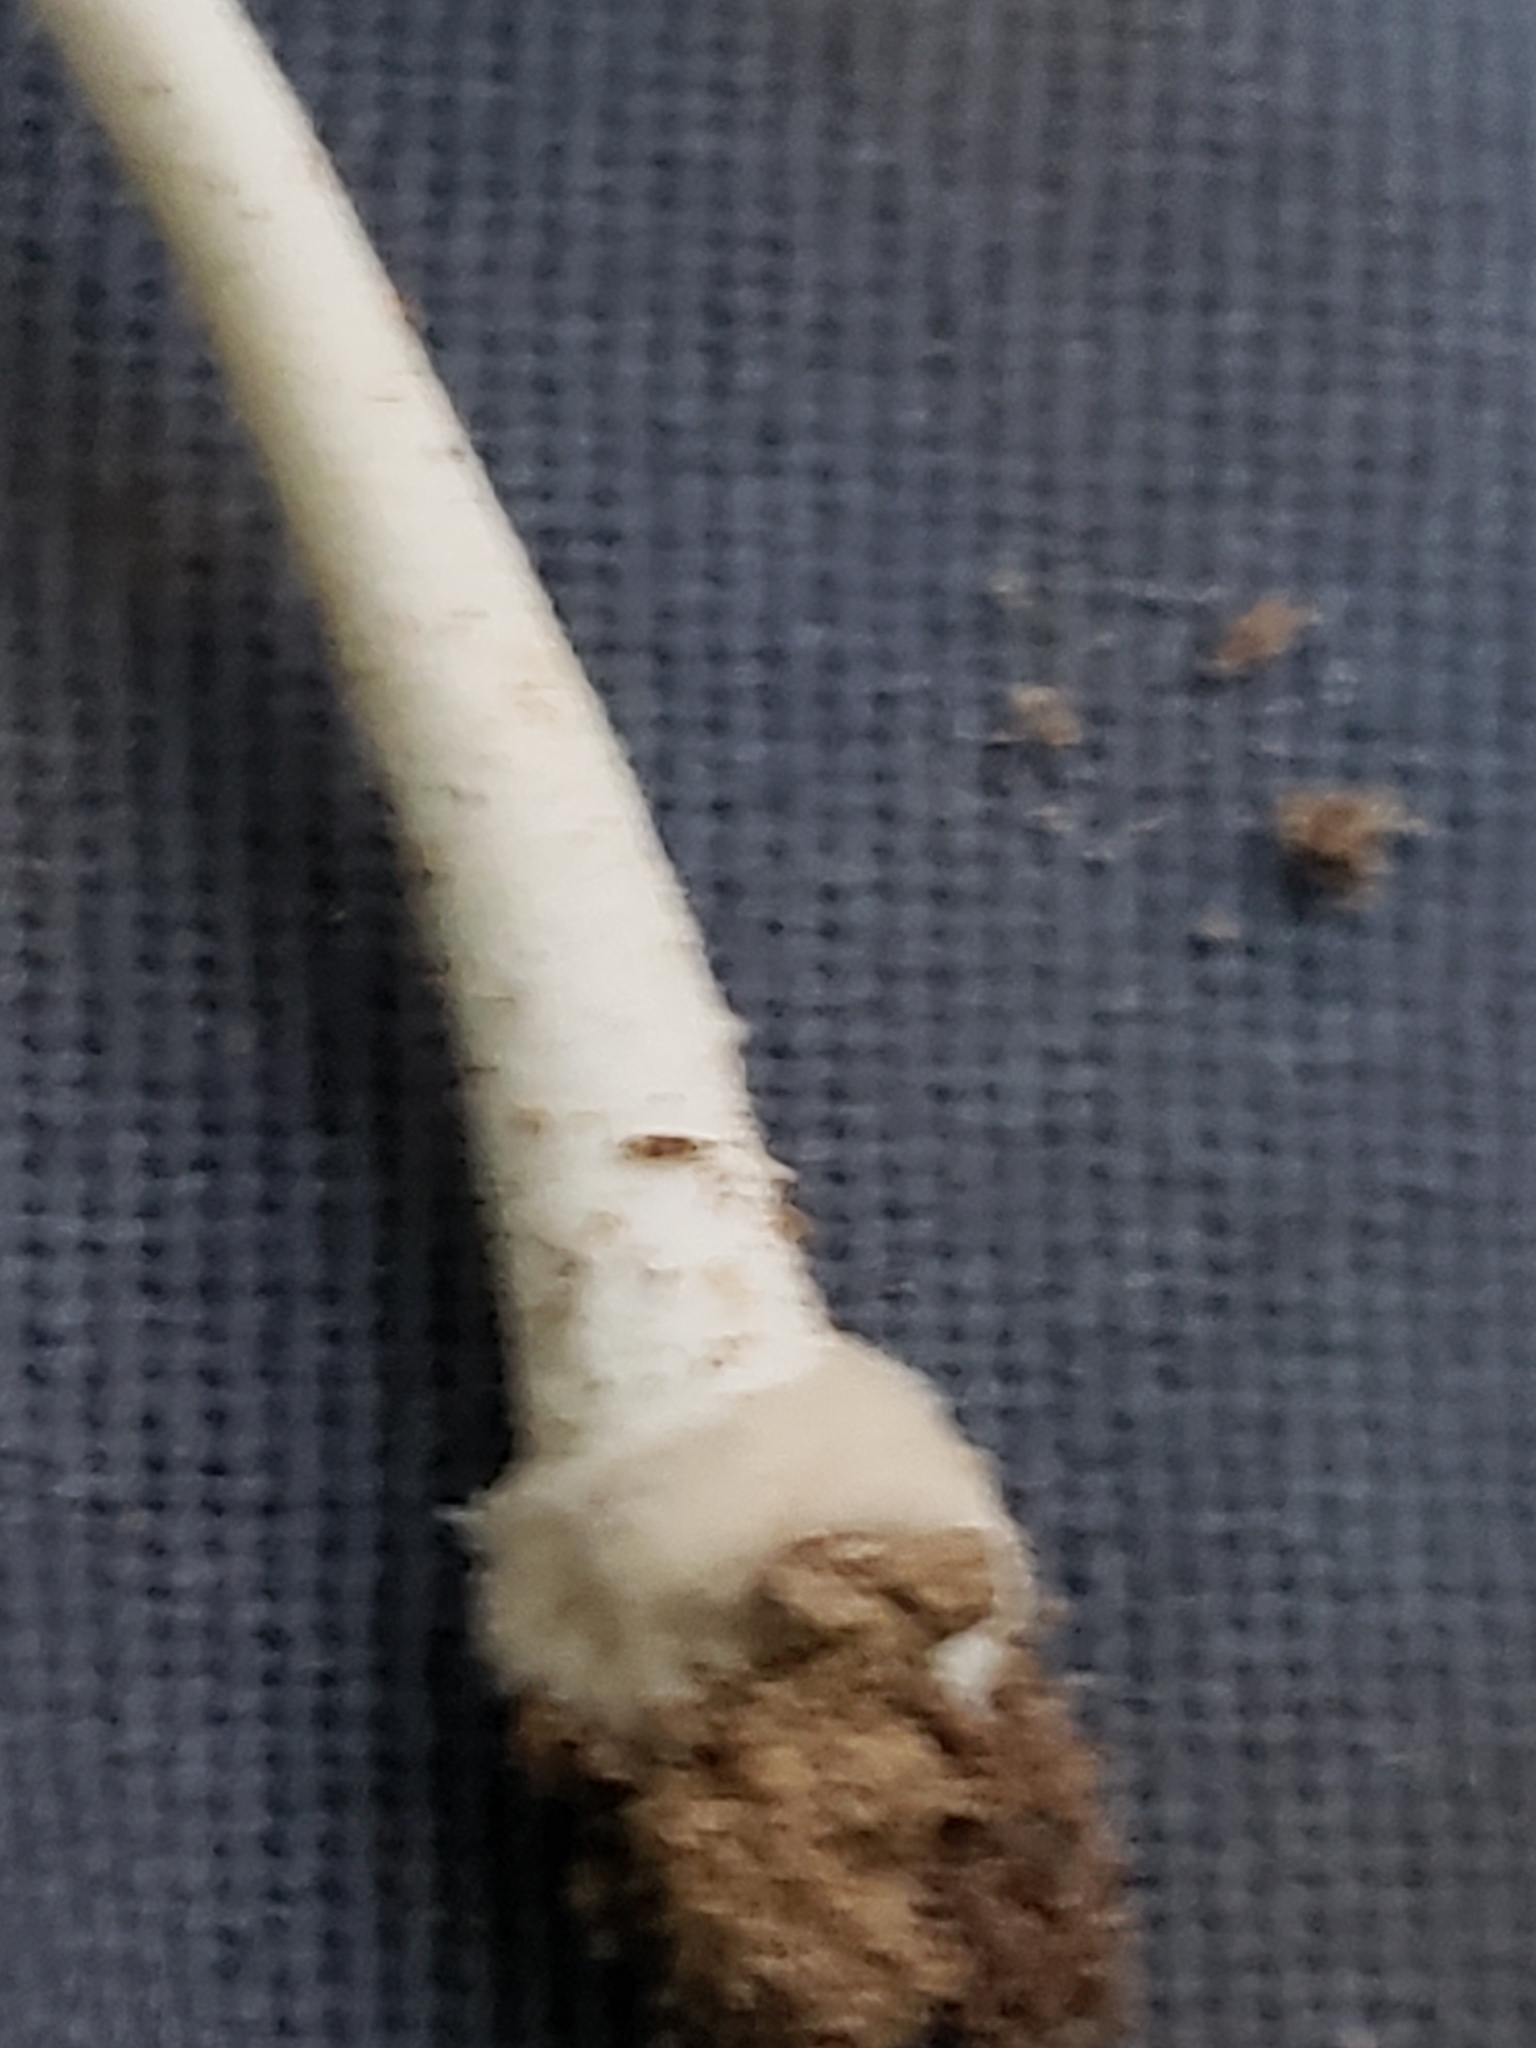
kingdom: Fungi
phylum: Basidiomycota
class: Agaricomycetes
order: Agaricales
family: Amanitaceae
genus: Amanita
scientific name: Amanita farinosa
